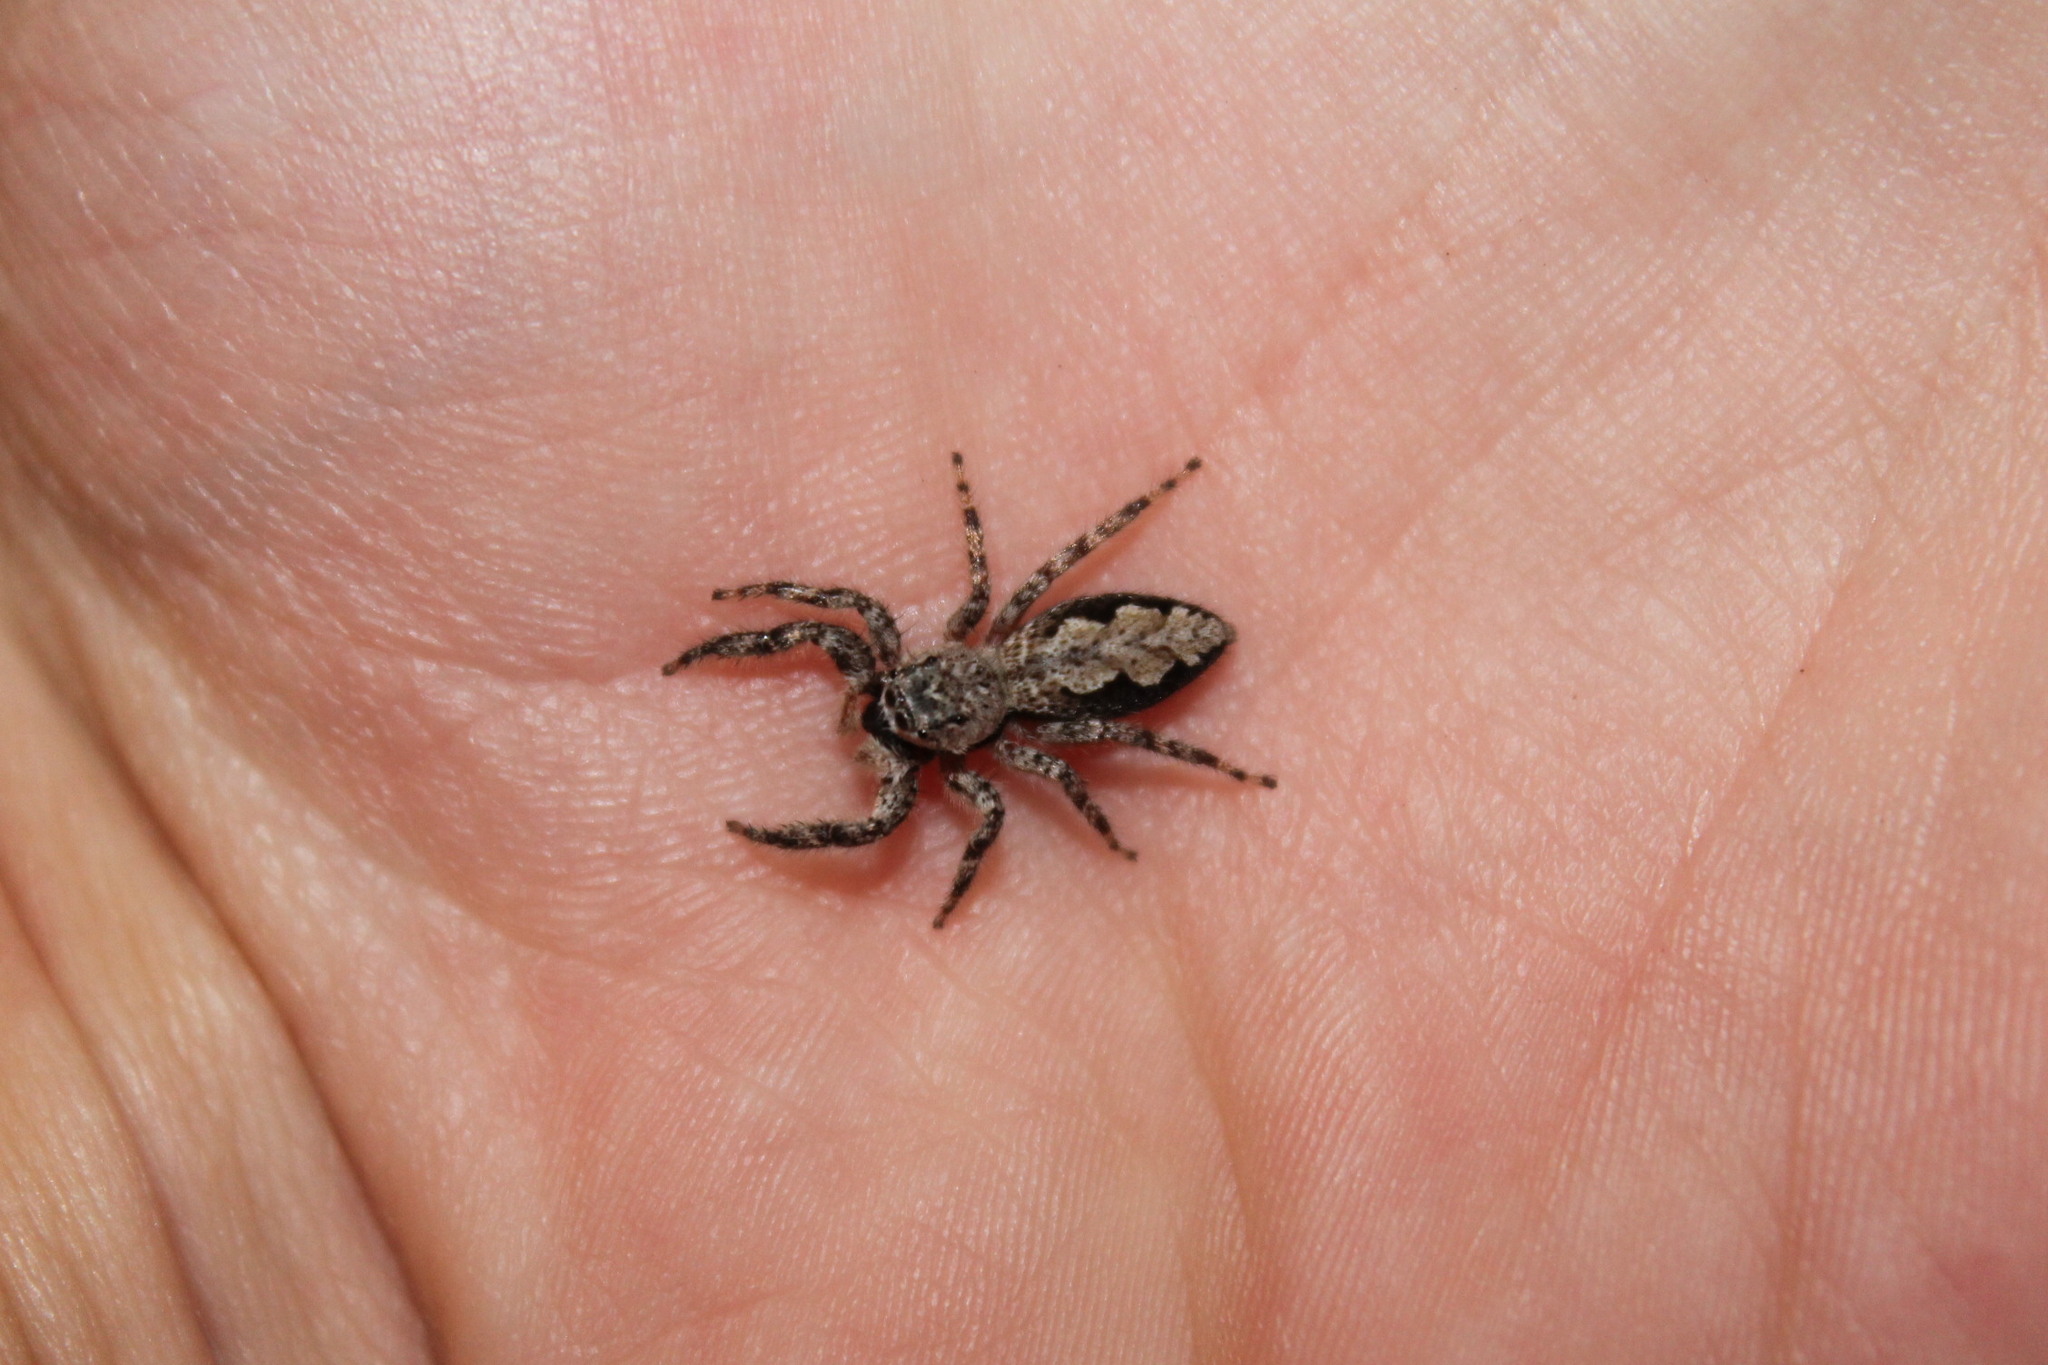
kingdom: Animalia
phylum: Arthropoda
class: Arachnida
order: Araneae
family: Salticidae
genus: Platycryptus
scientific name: Platycryptus undatus
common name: Tan jumping spider
